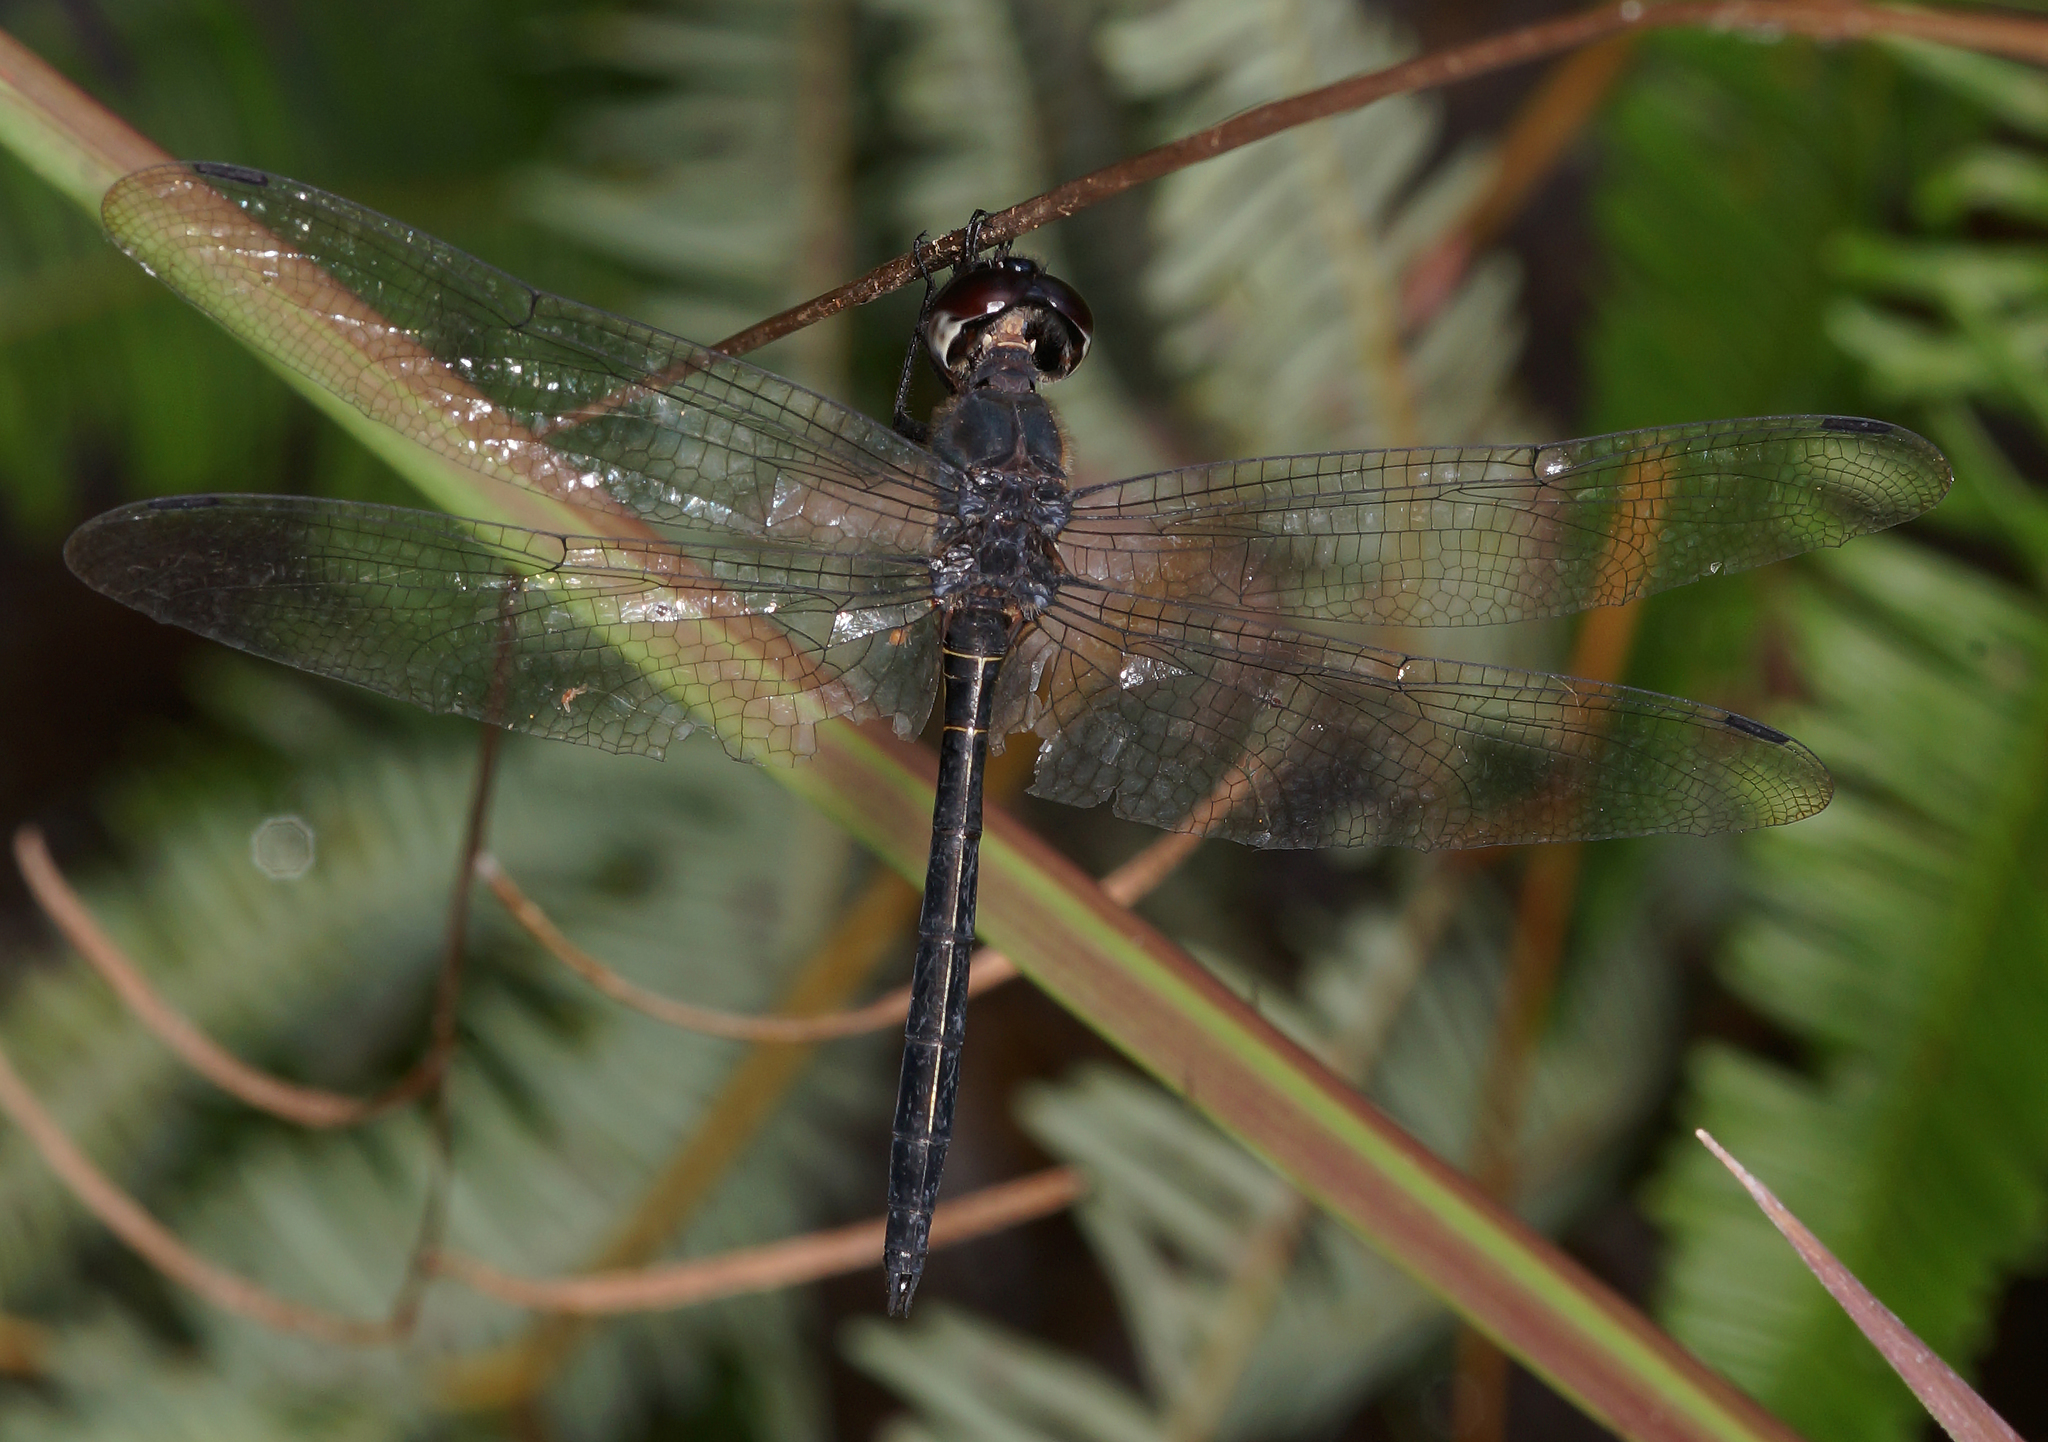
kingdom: Animalia
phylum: Arthropoda
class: Insecta
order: Odonata
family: Libellulidae
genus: Zygonyx
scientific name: Zygonyx iris
